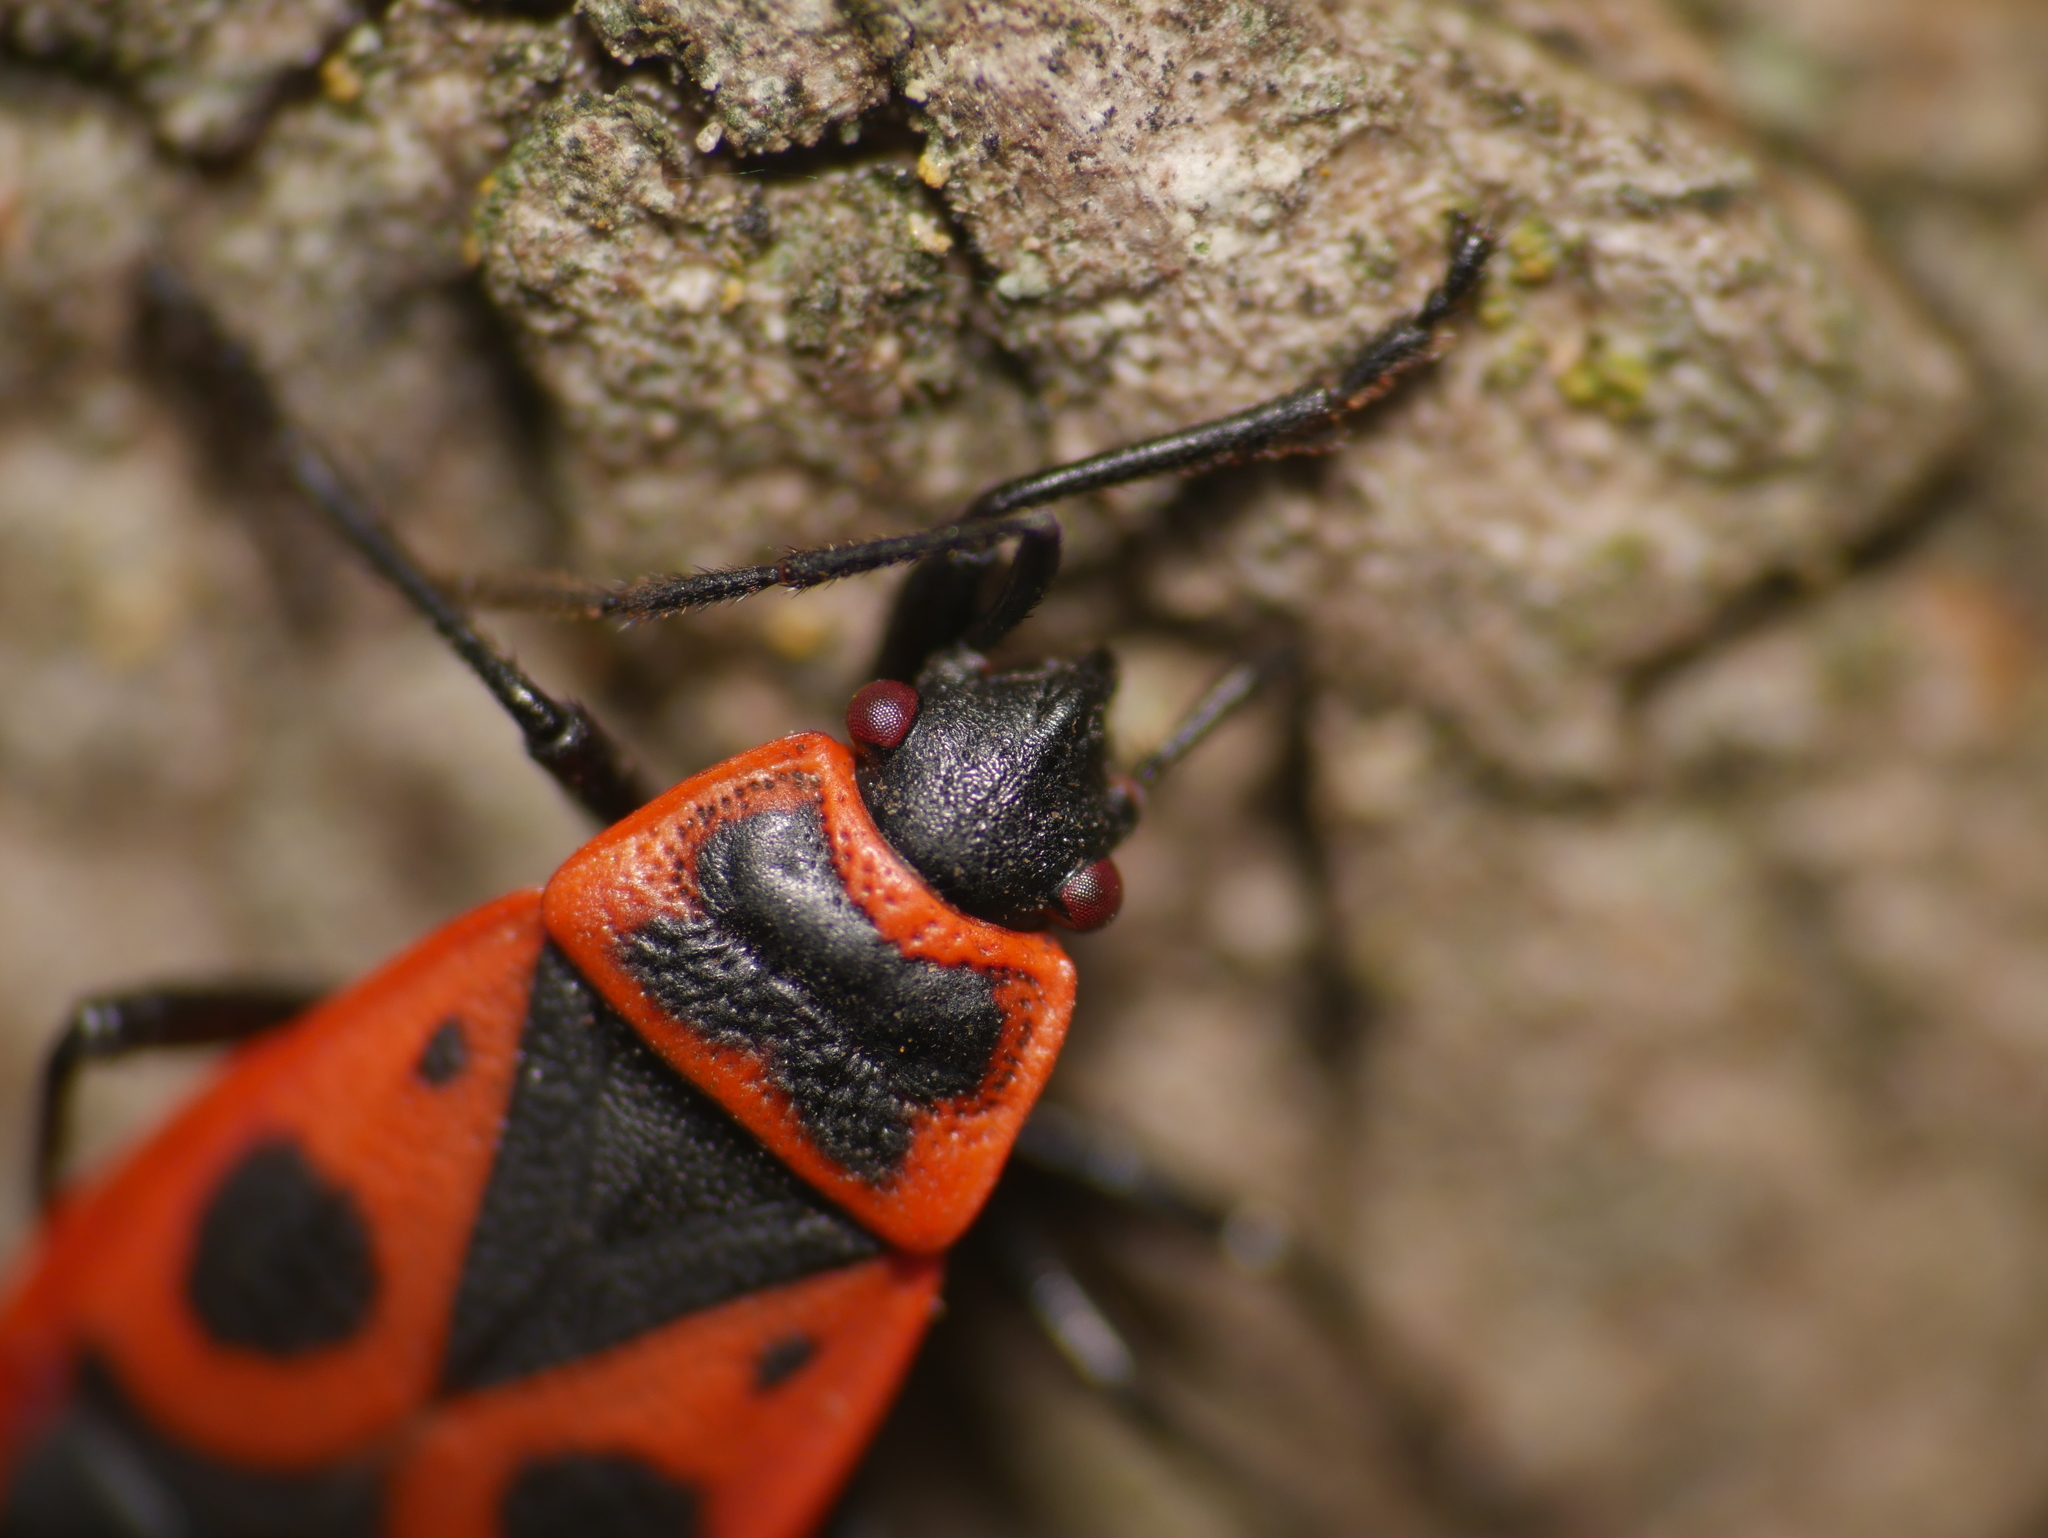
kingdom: Animalia
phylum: Arthropoda
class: Insecta
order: Hemiptera
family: Pyrrhocoridae
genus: Pyrrhocoris
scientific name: Pyrrhocoris apterus
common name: Firebug
